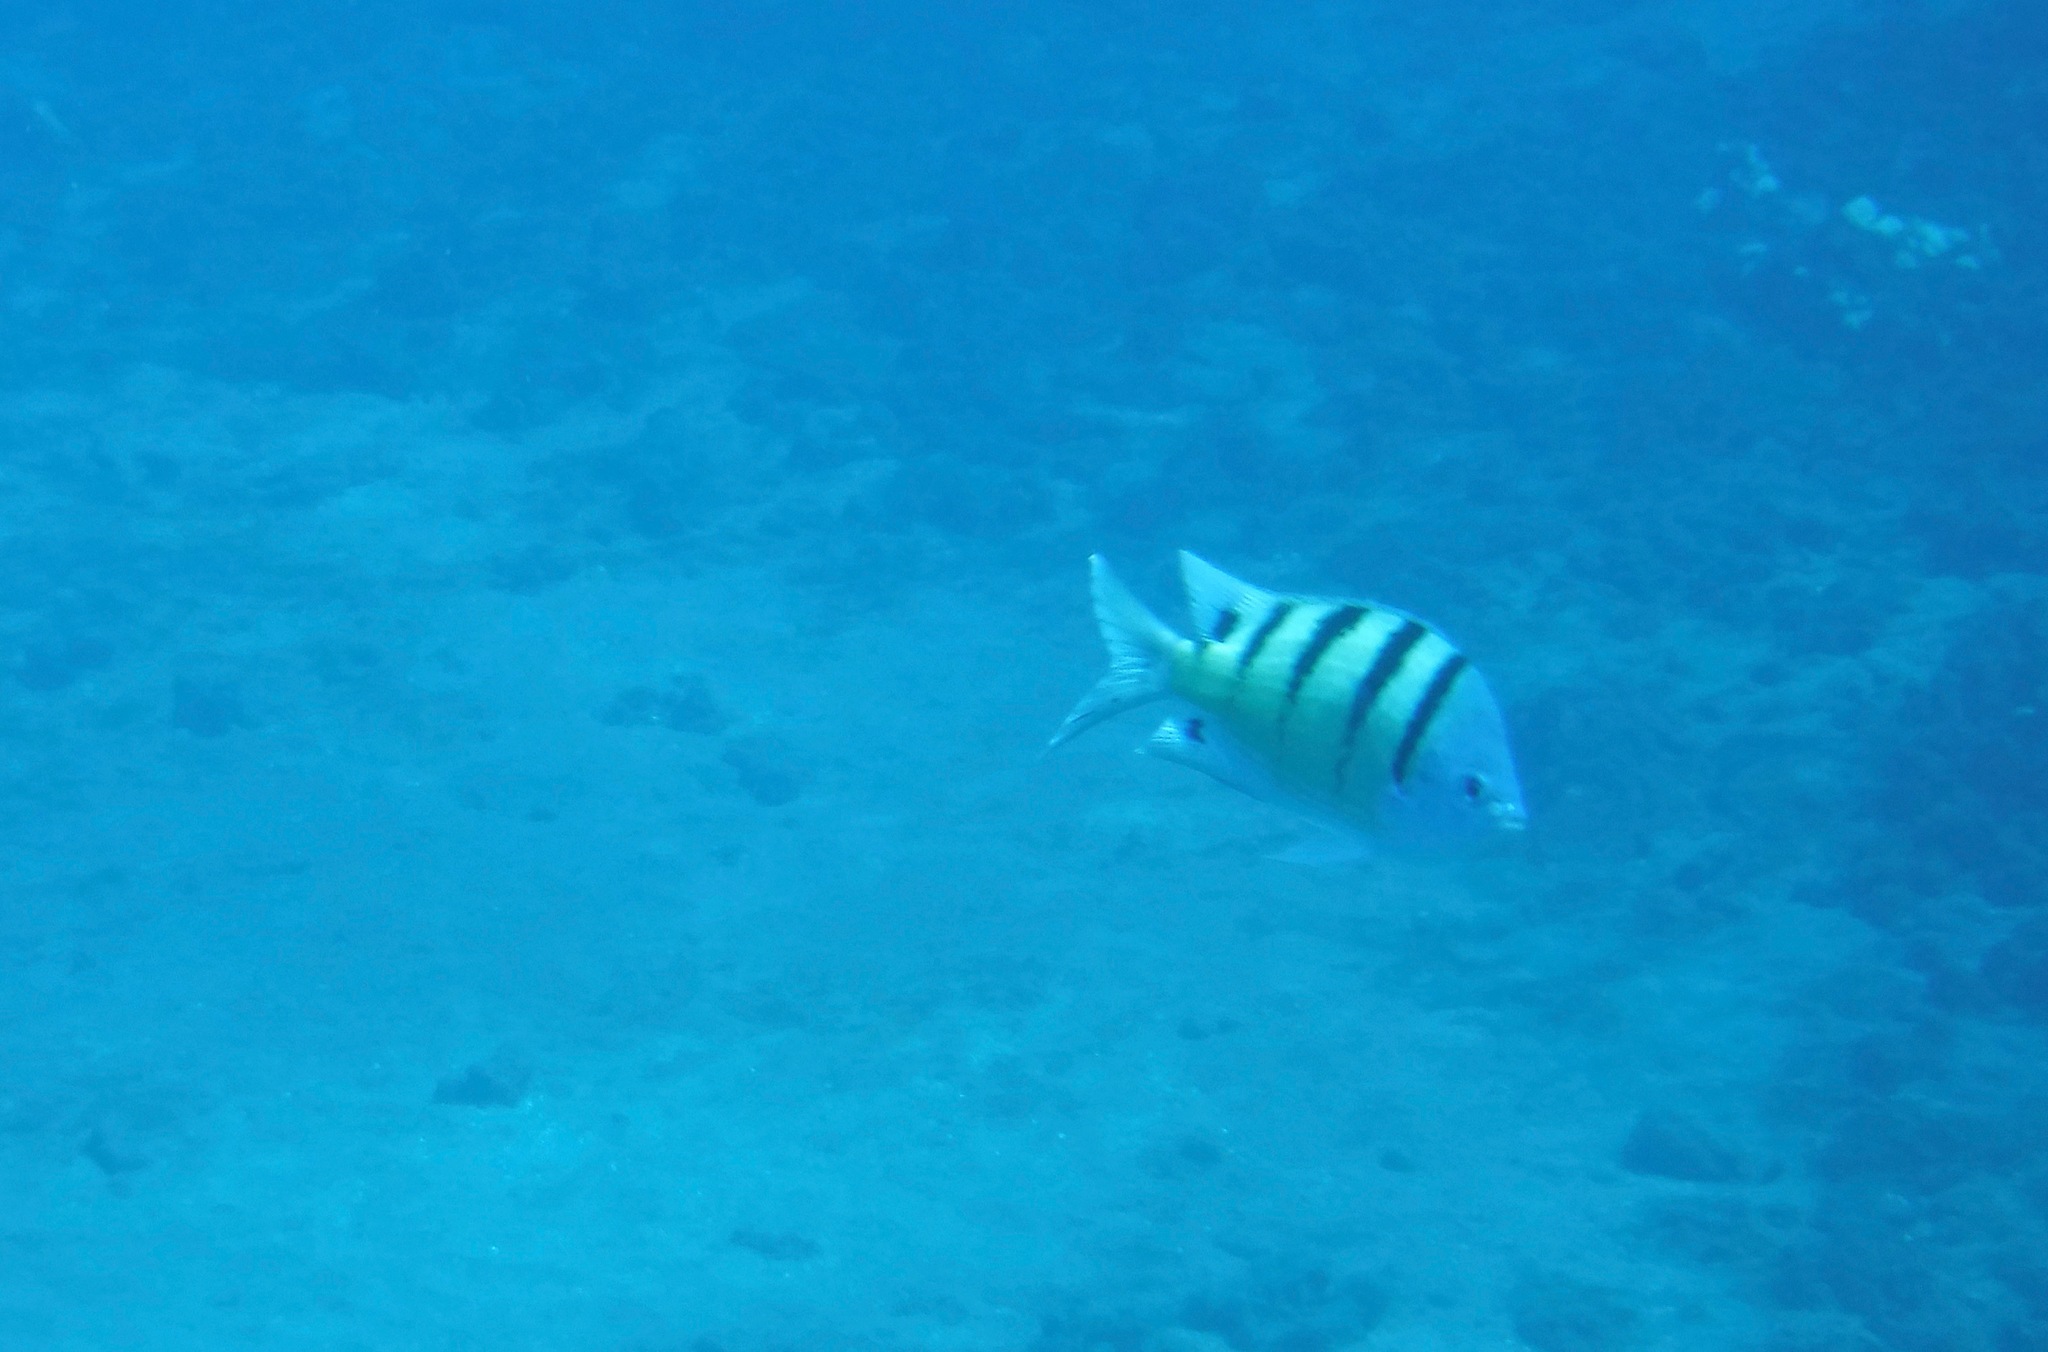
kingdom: Animalia
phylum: Chordata
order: Perciformes
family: Pomacentridae
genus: Abudefduf
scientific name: Abudefduf abdominalis
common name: Green damselfish
